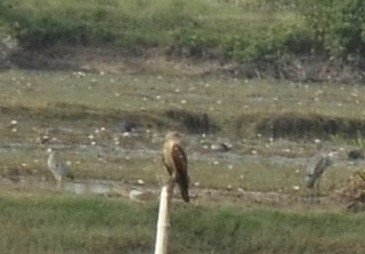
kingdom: Animalia
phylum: Chordata
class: Aves
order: Accipitriformes
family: Accipitridae
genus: Haliastur
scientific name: Haliastur indus
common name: Brahminy kite
